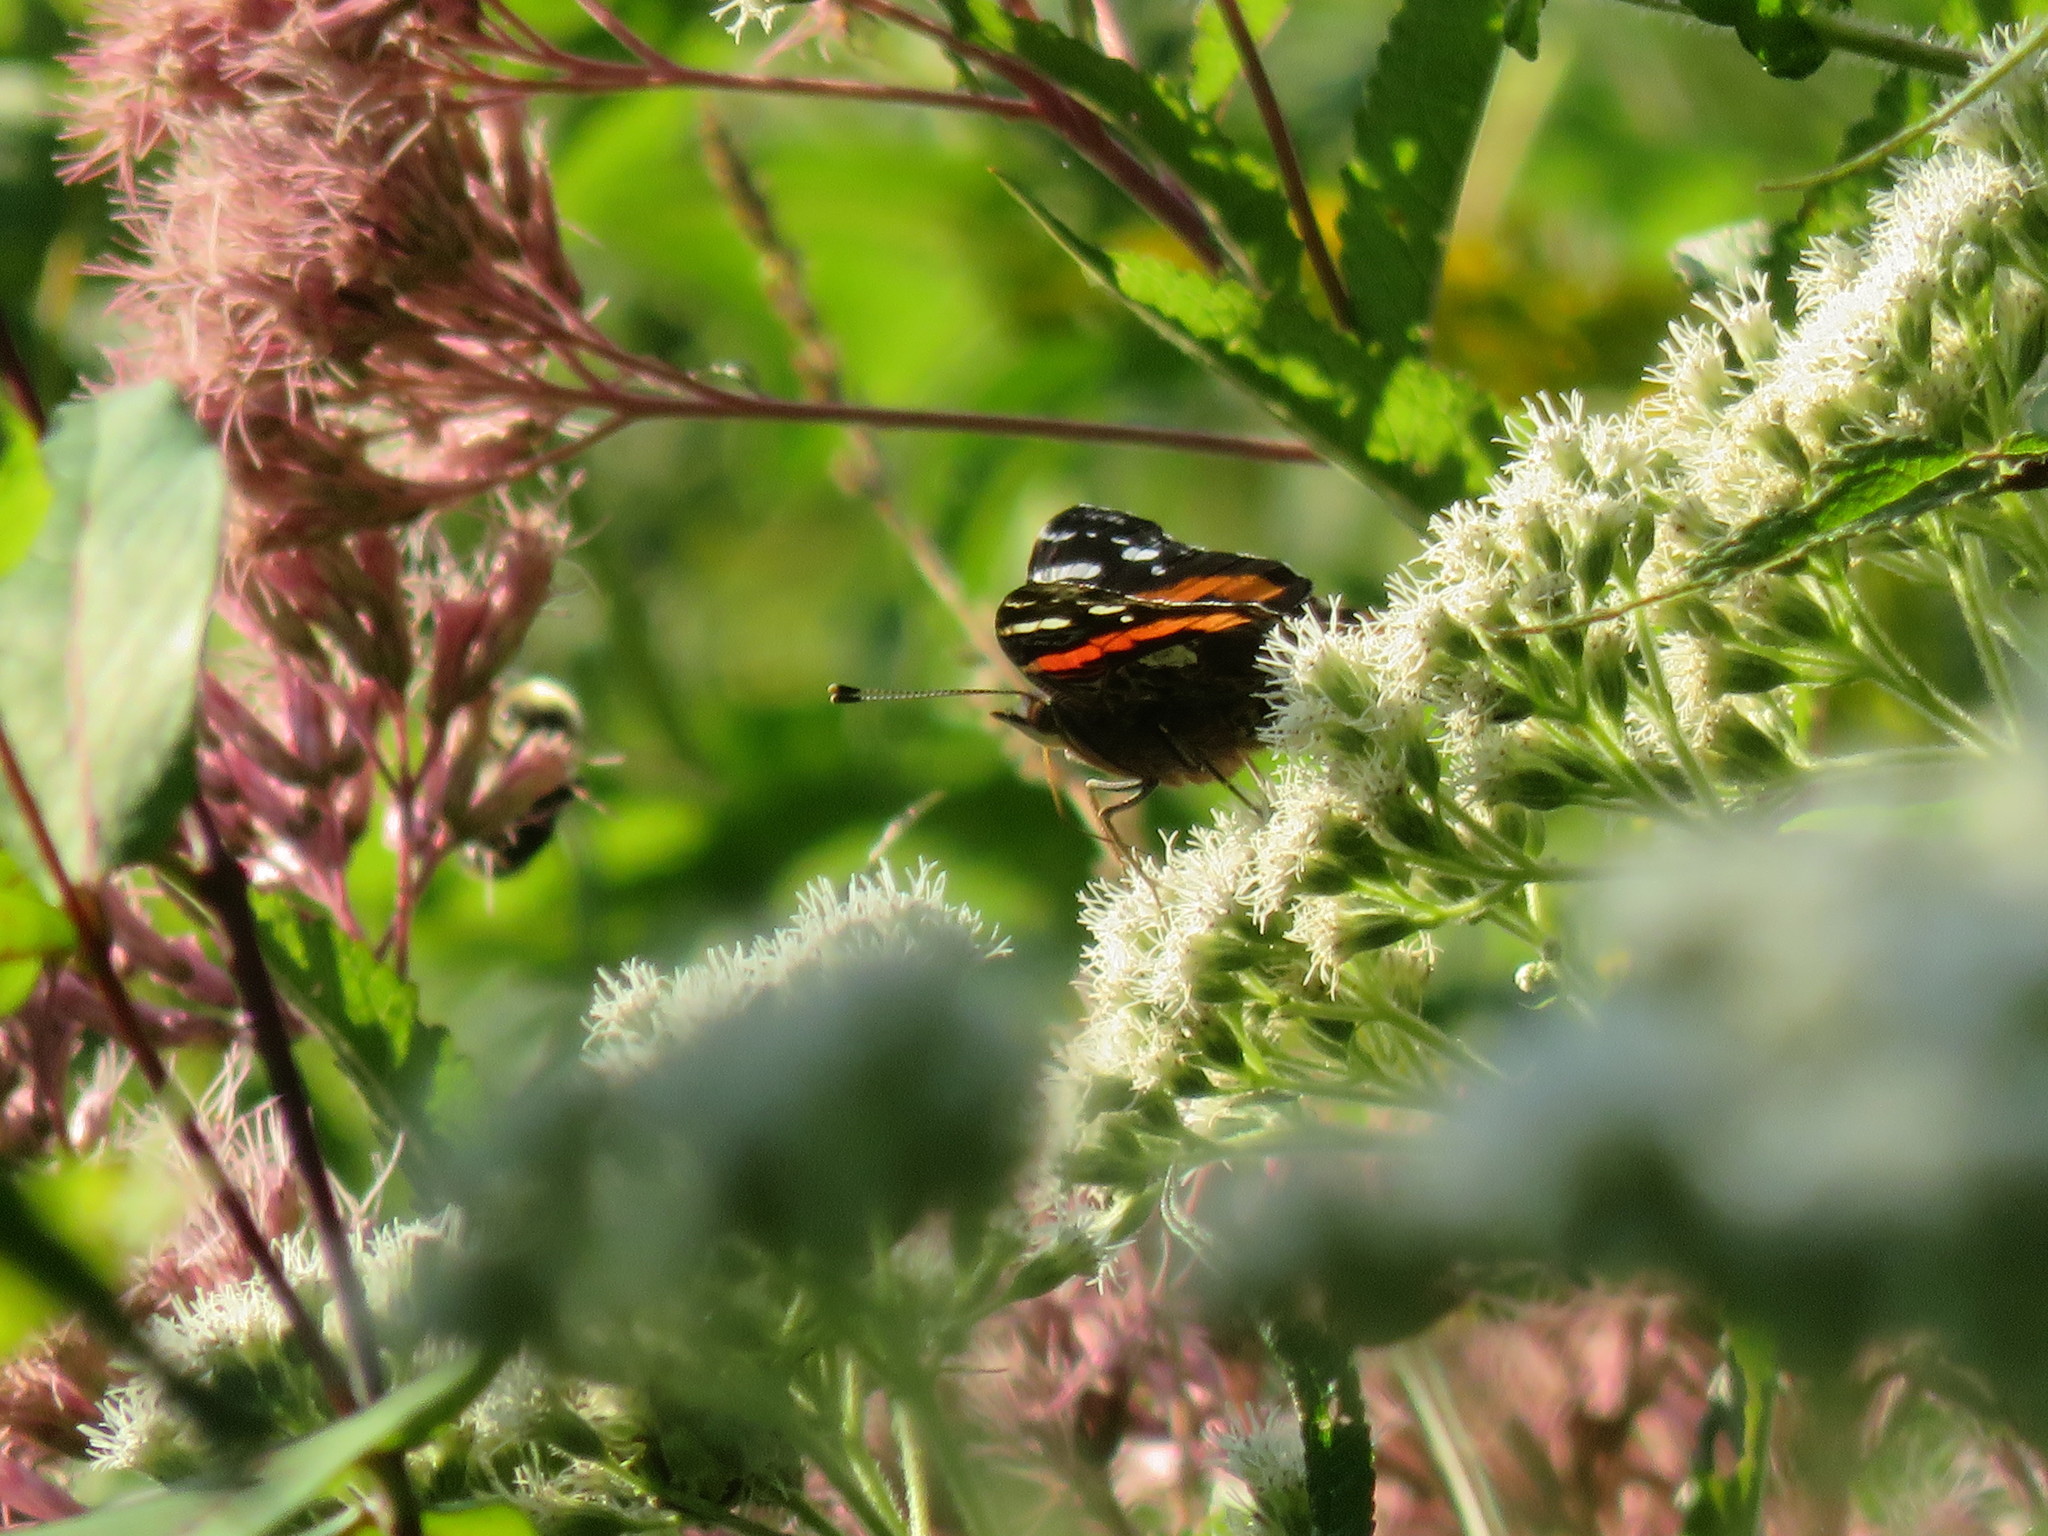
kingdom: Animalia
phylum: Arthropoda
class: Insecta
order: Lepidoptera
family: Nymphalidae
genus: Vanessa
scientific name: Vanessa atalanta
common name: Red admiral
